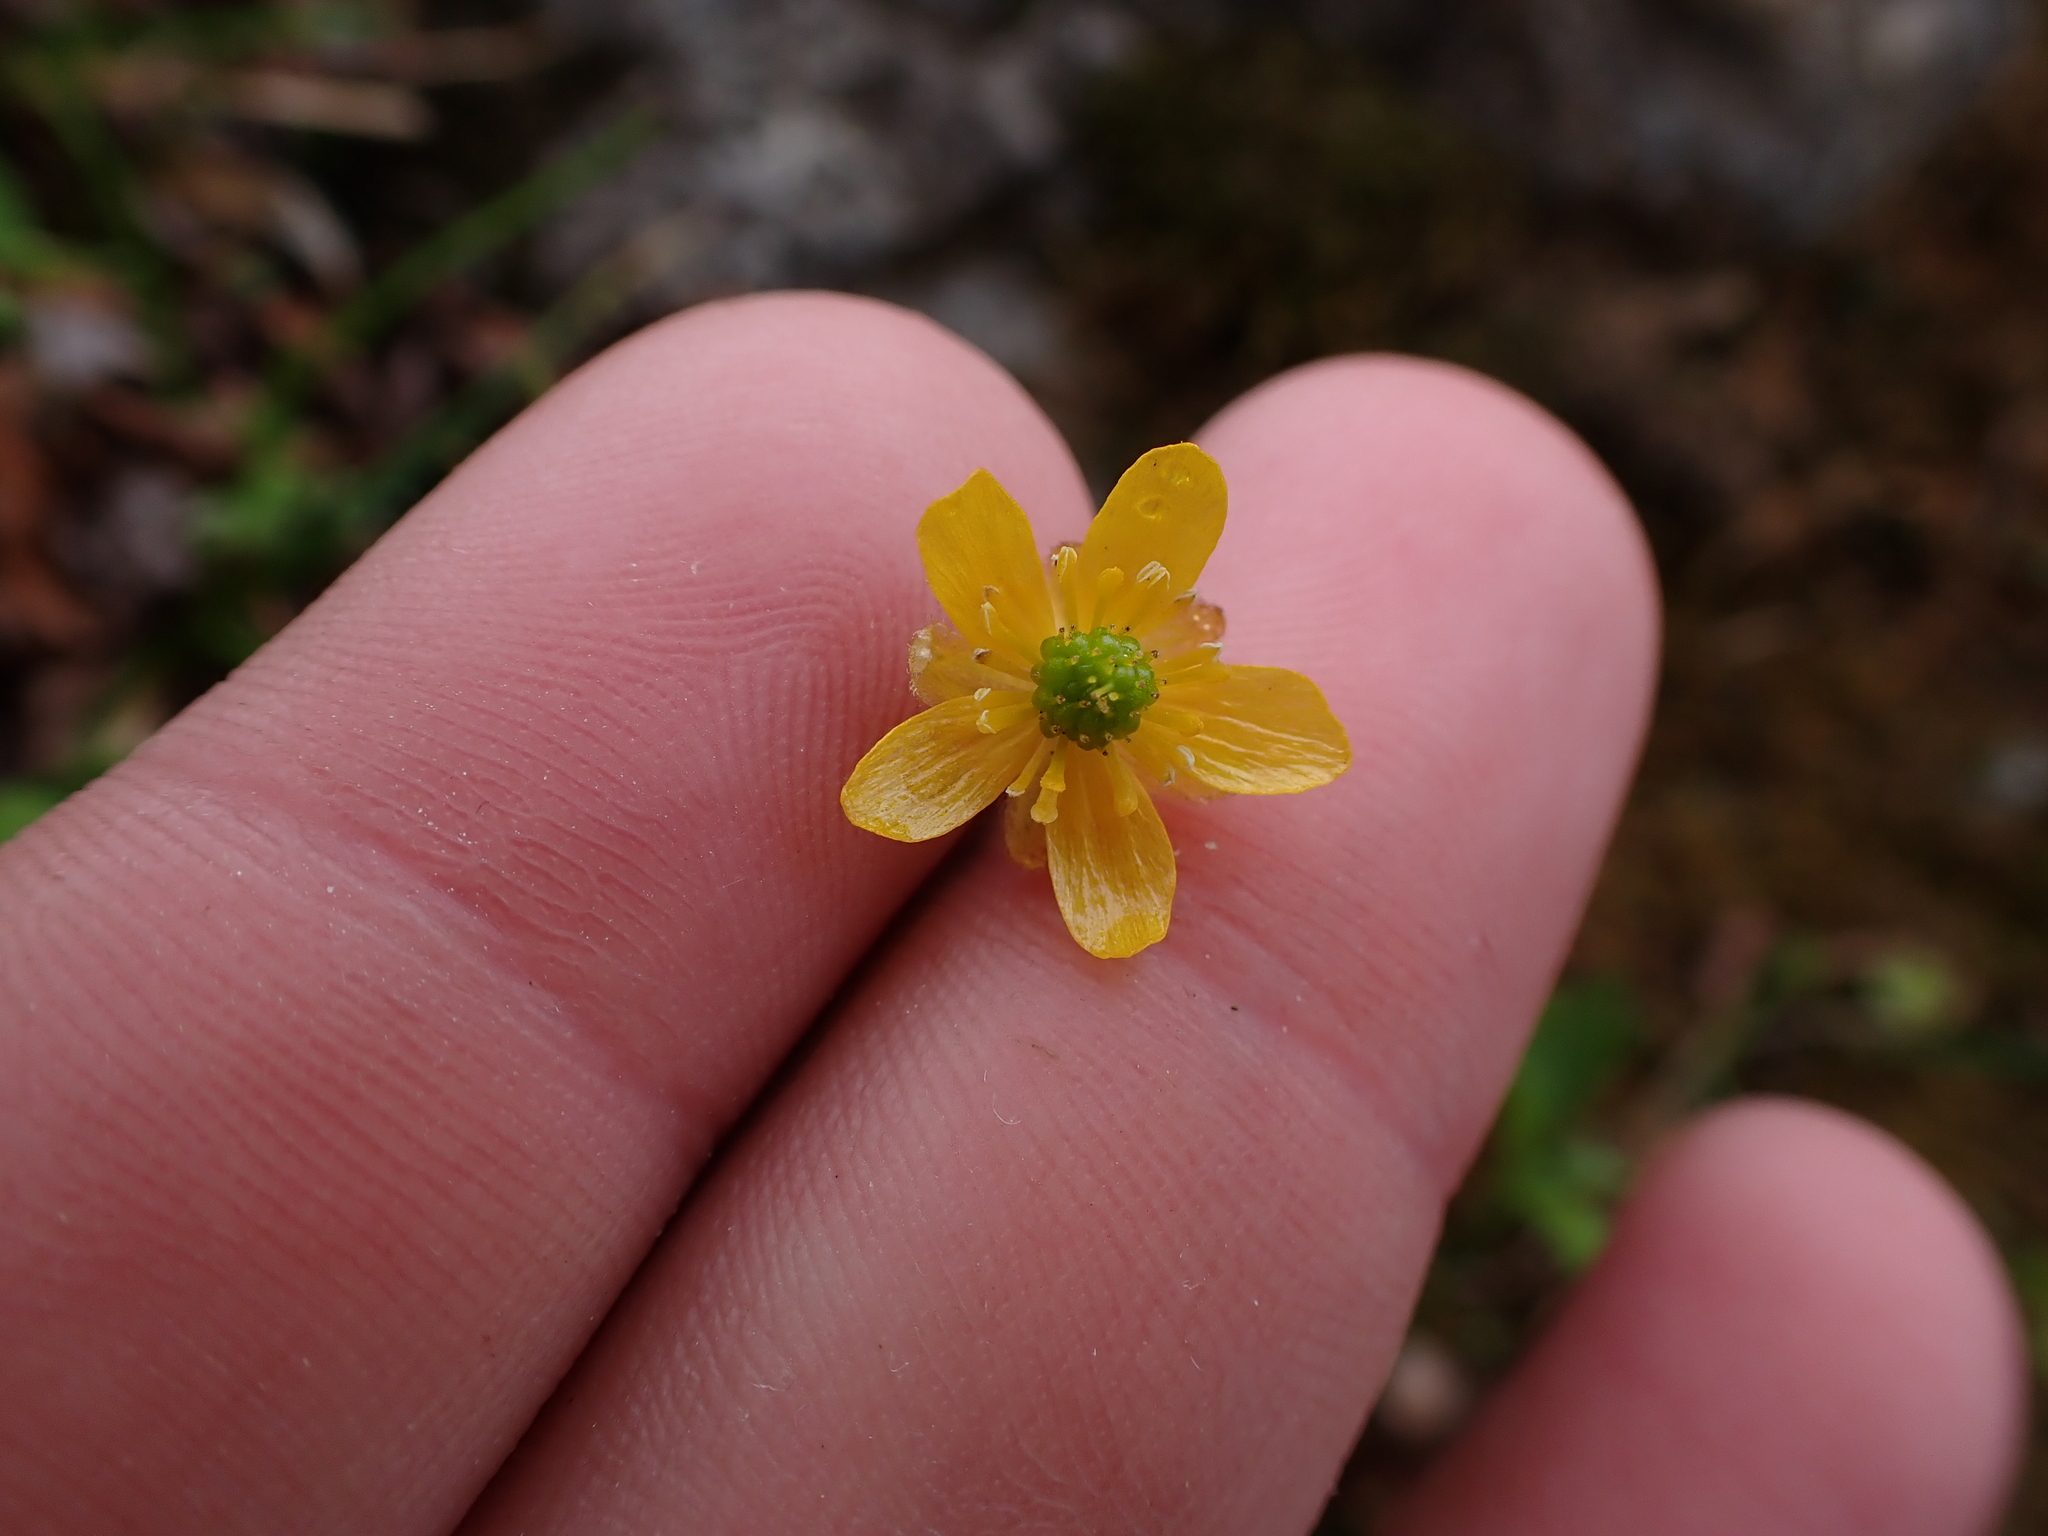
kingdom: Plantae
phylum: Tracheophyta
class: Magnoliopsida
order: Ranunculales
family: Ranunculaceae
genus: Ranunculus
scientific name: Ranunculus eschscholtzii
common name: Eschscholtz's buttercup
